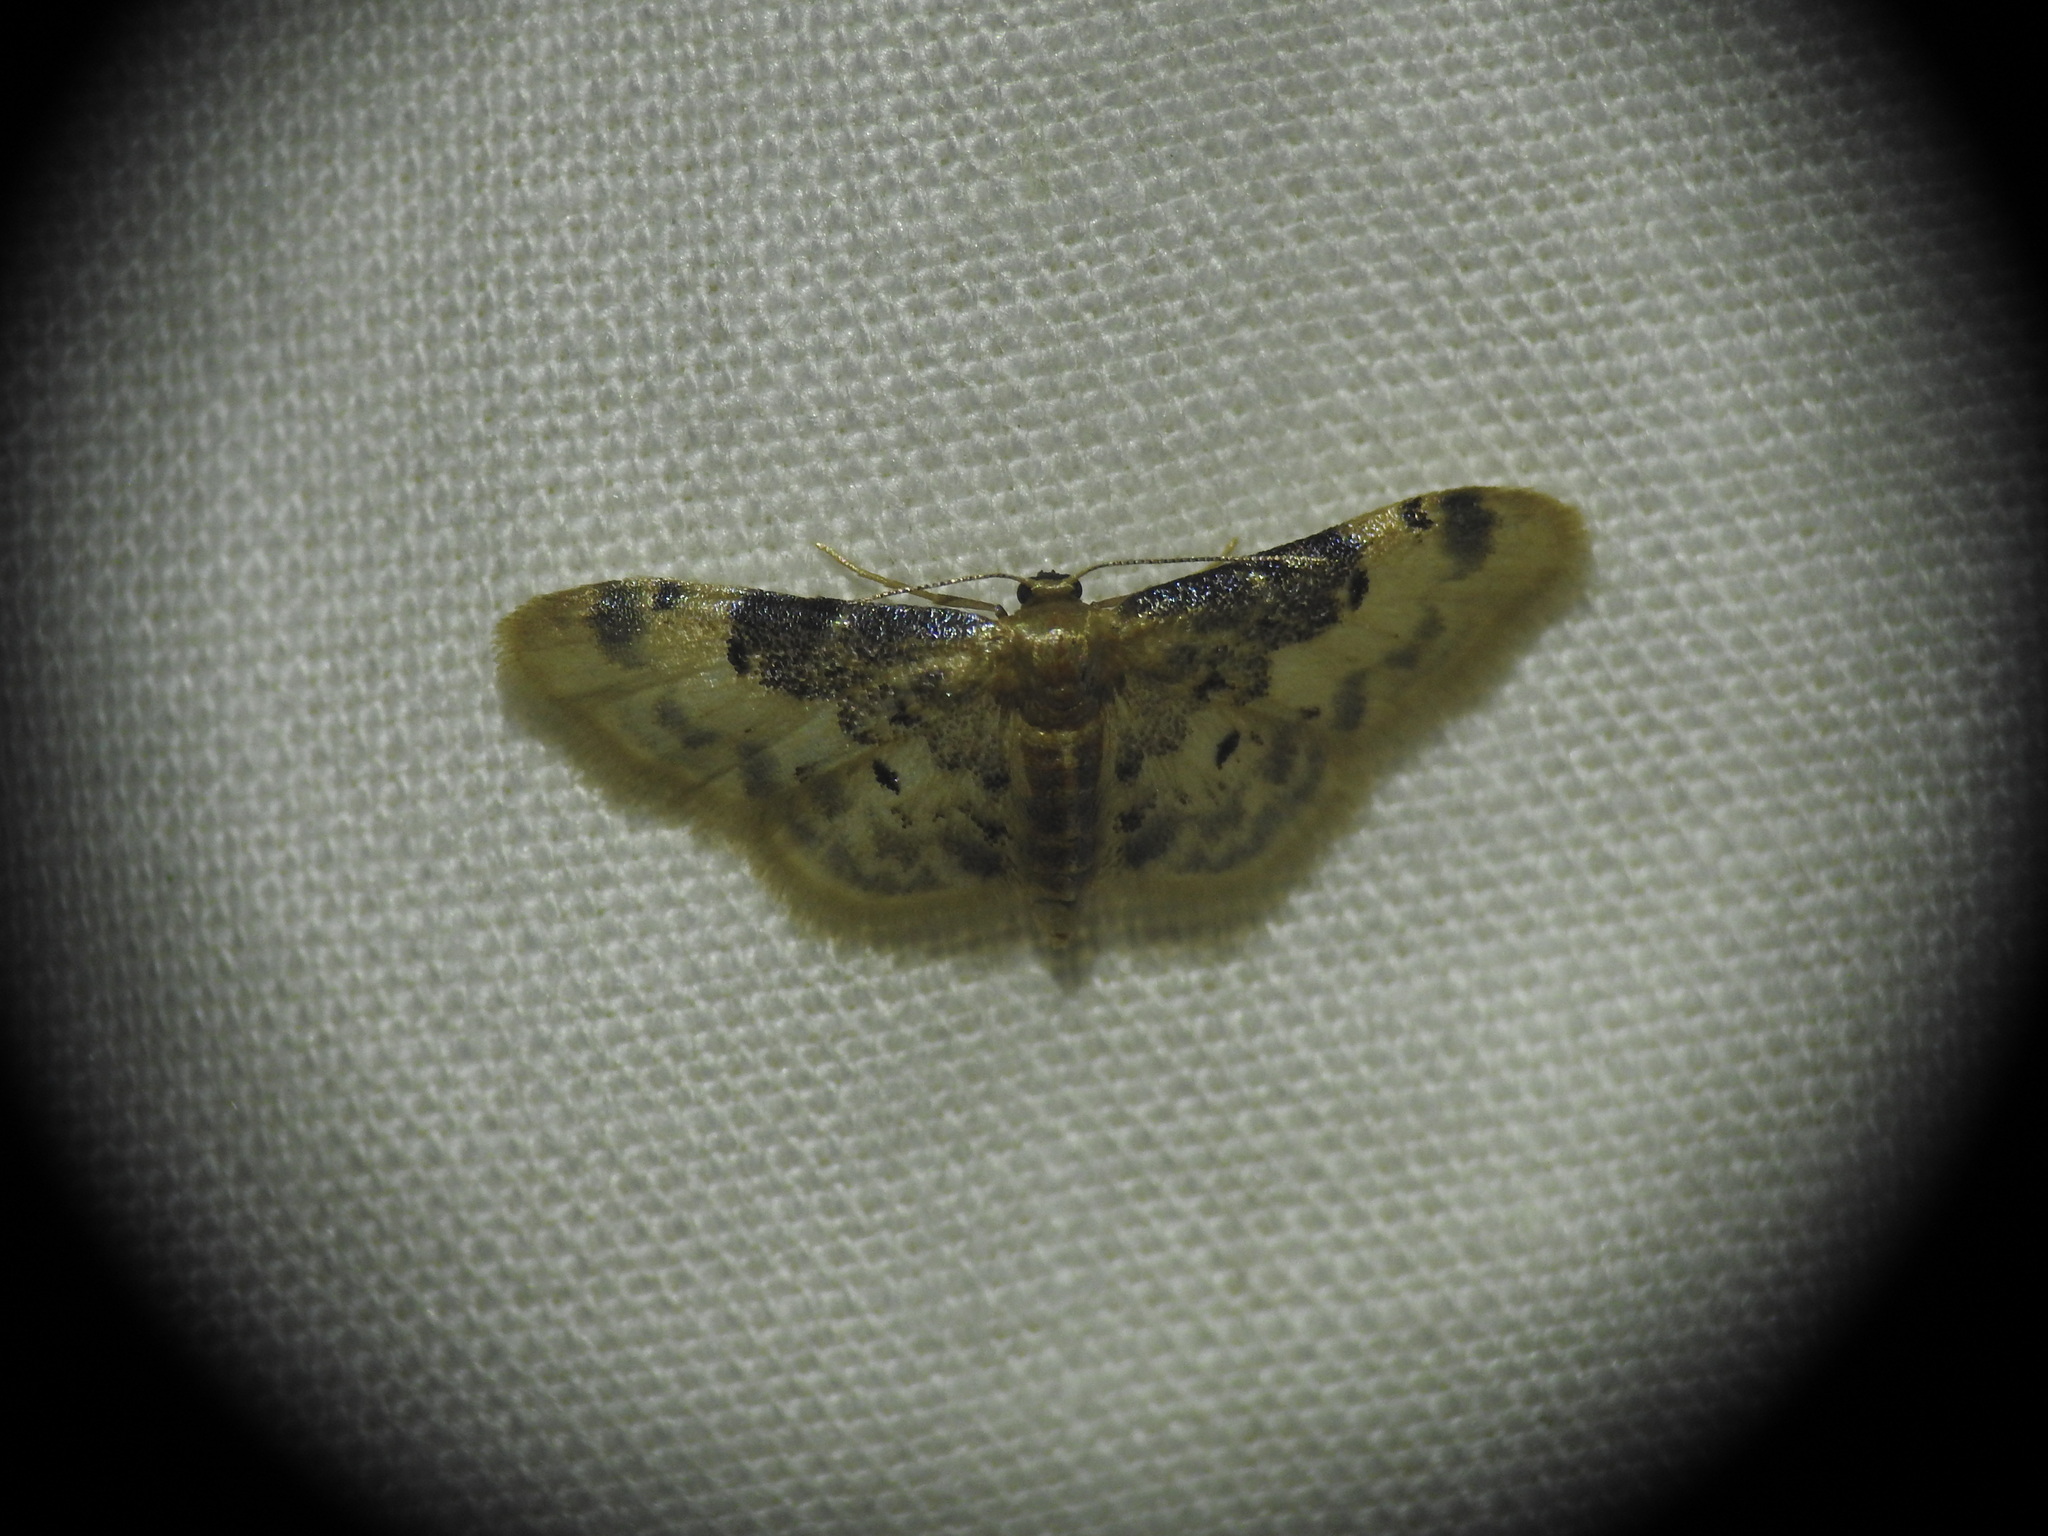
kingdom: Animalia
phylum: Arthropoda
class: Insecta
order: Lepidoptera
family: Geometridae
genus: Idaea
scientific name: Idaea filicata
